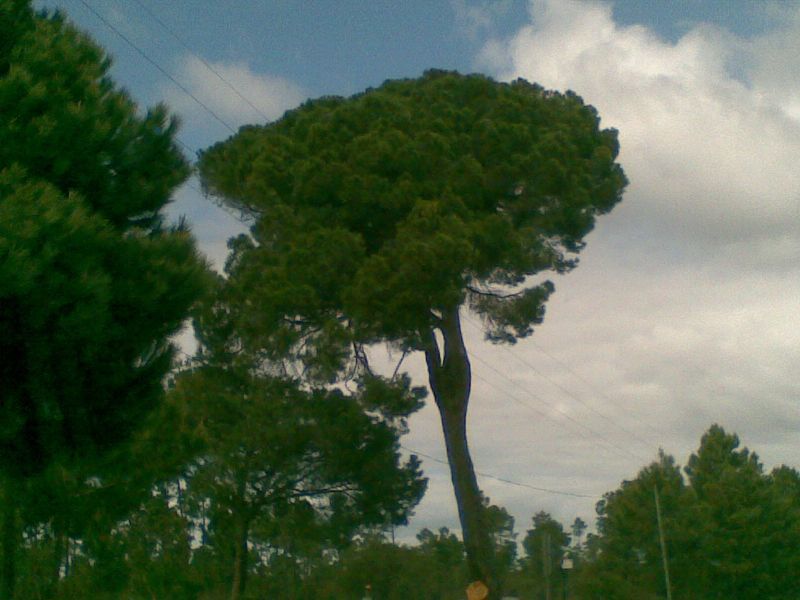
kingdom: Plantae
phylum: Tracheophyta
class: Pinopsida
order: Pinales
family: Pinaceae
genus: Pinus
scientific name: Pinus pinea
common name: Italian stone pine
